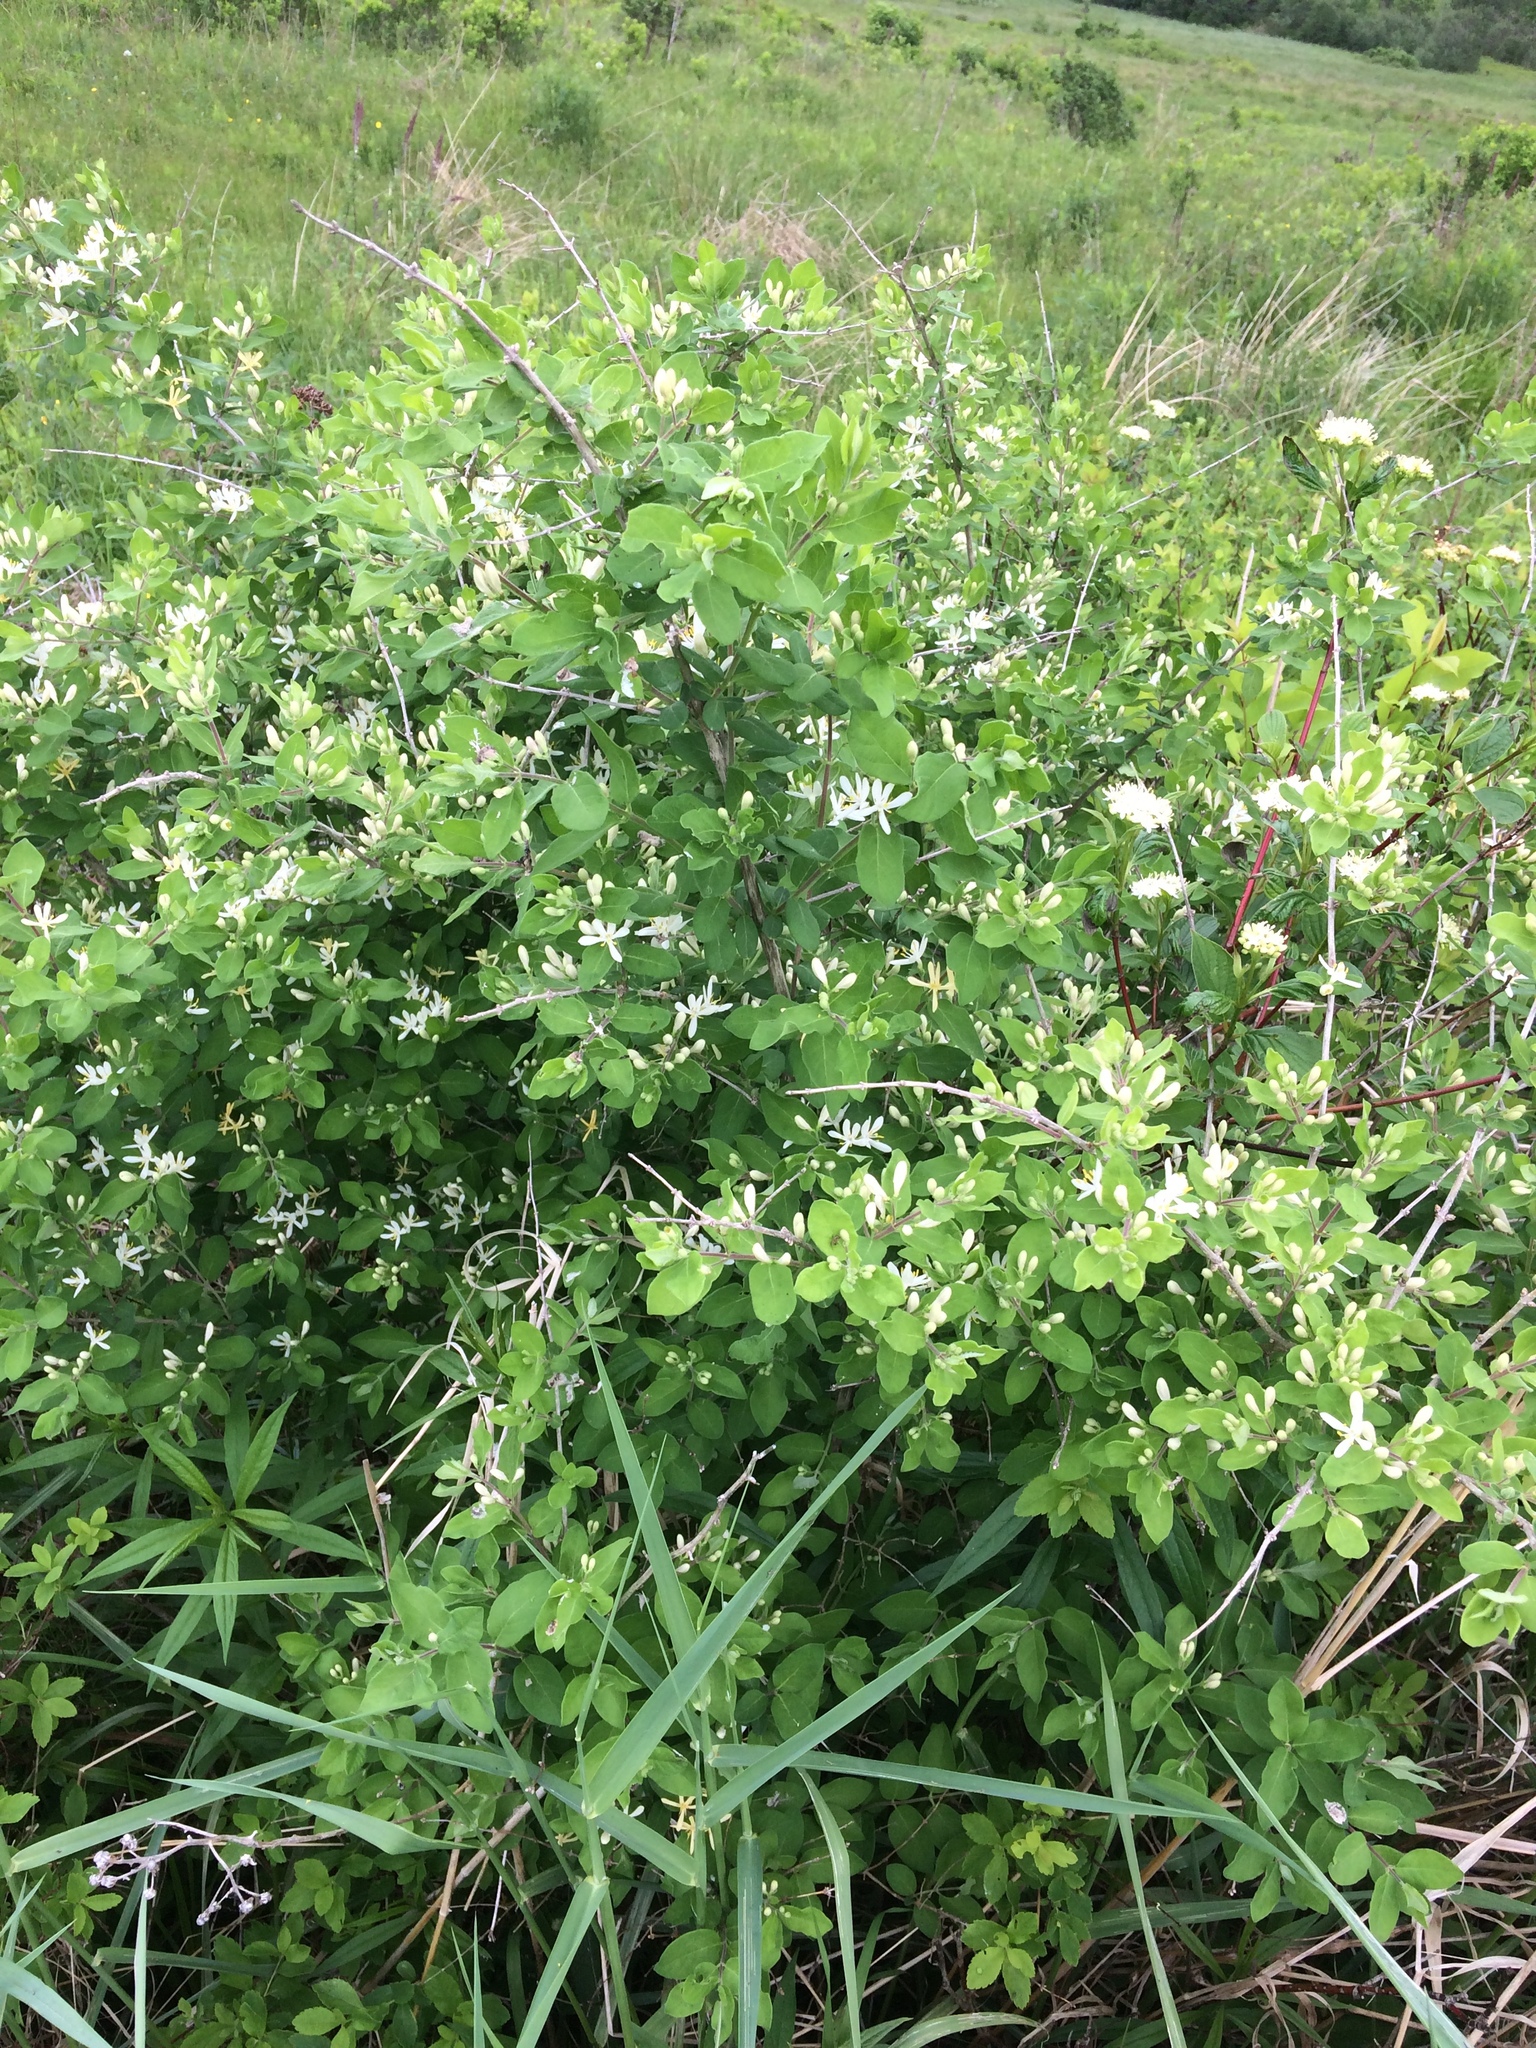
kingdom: Plantae
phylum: Tracheophyta
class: Magnoliopsida
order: Dipsacales
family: Caprifoliaceae
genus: Lonicera
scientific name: Lonicera morrowii
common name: Morrow's honeysuckle
